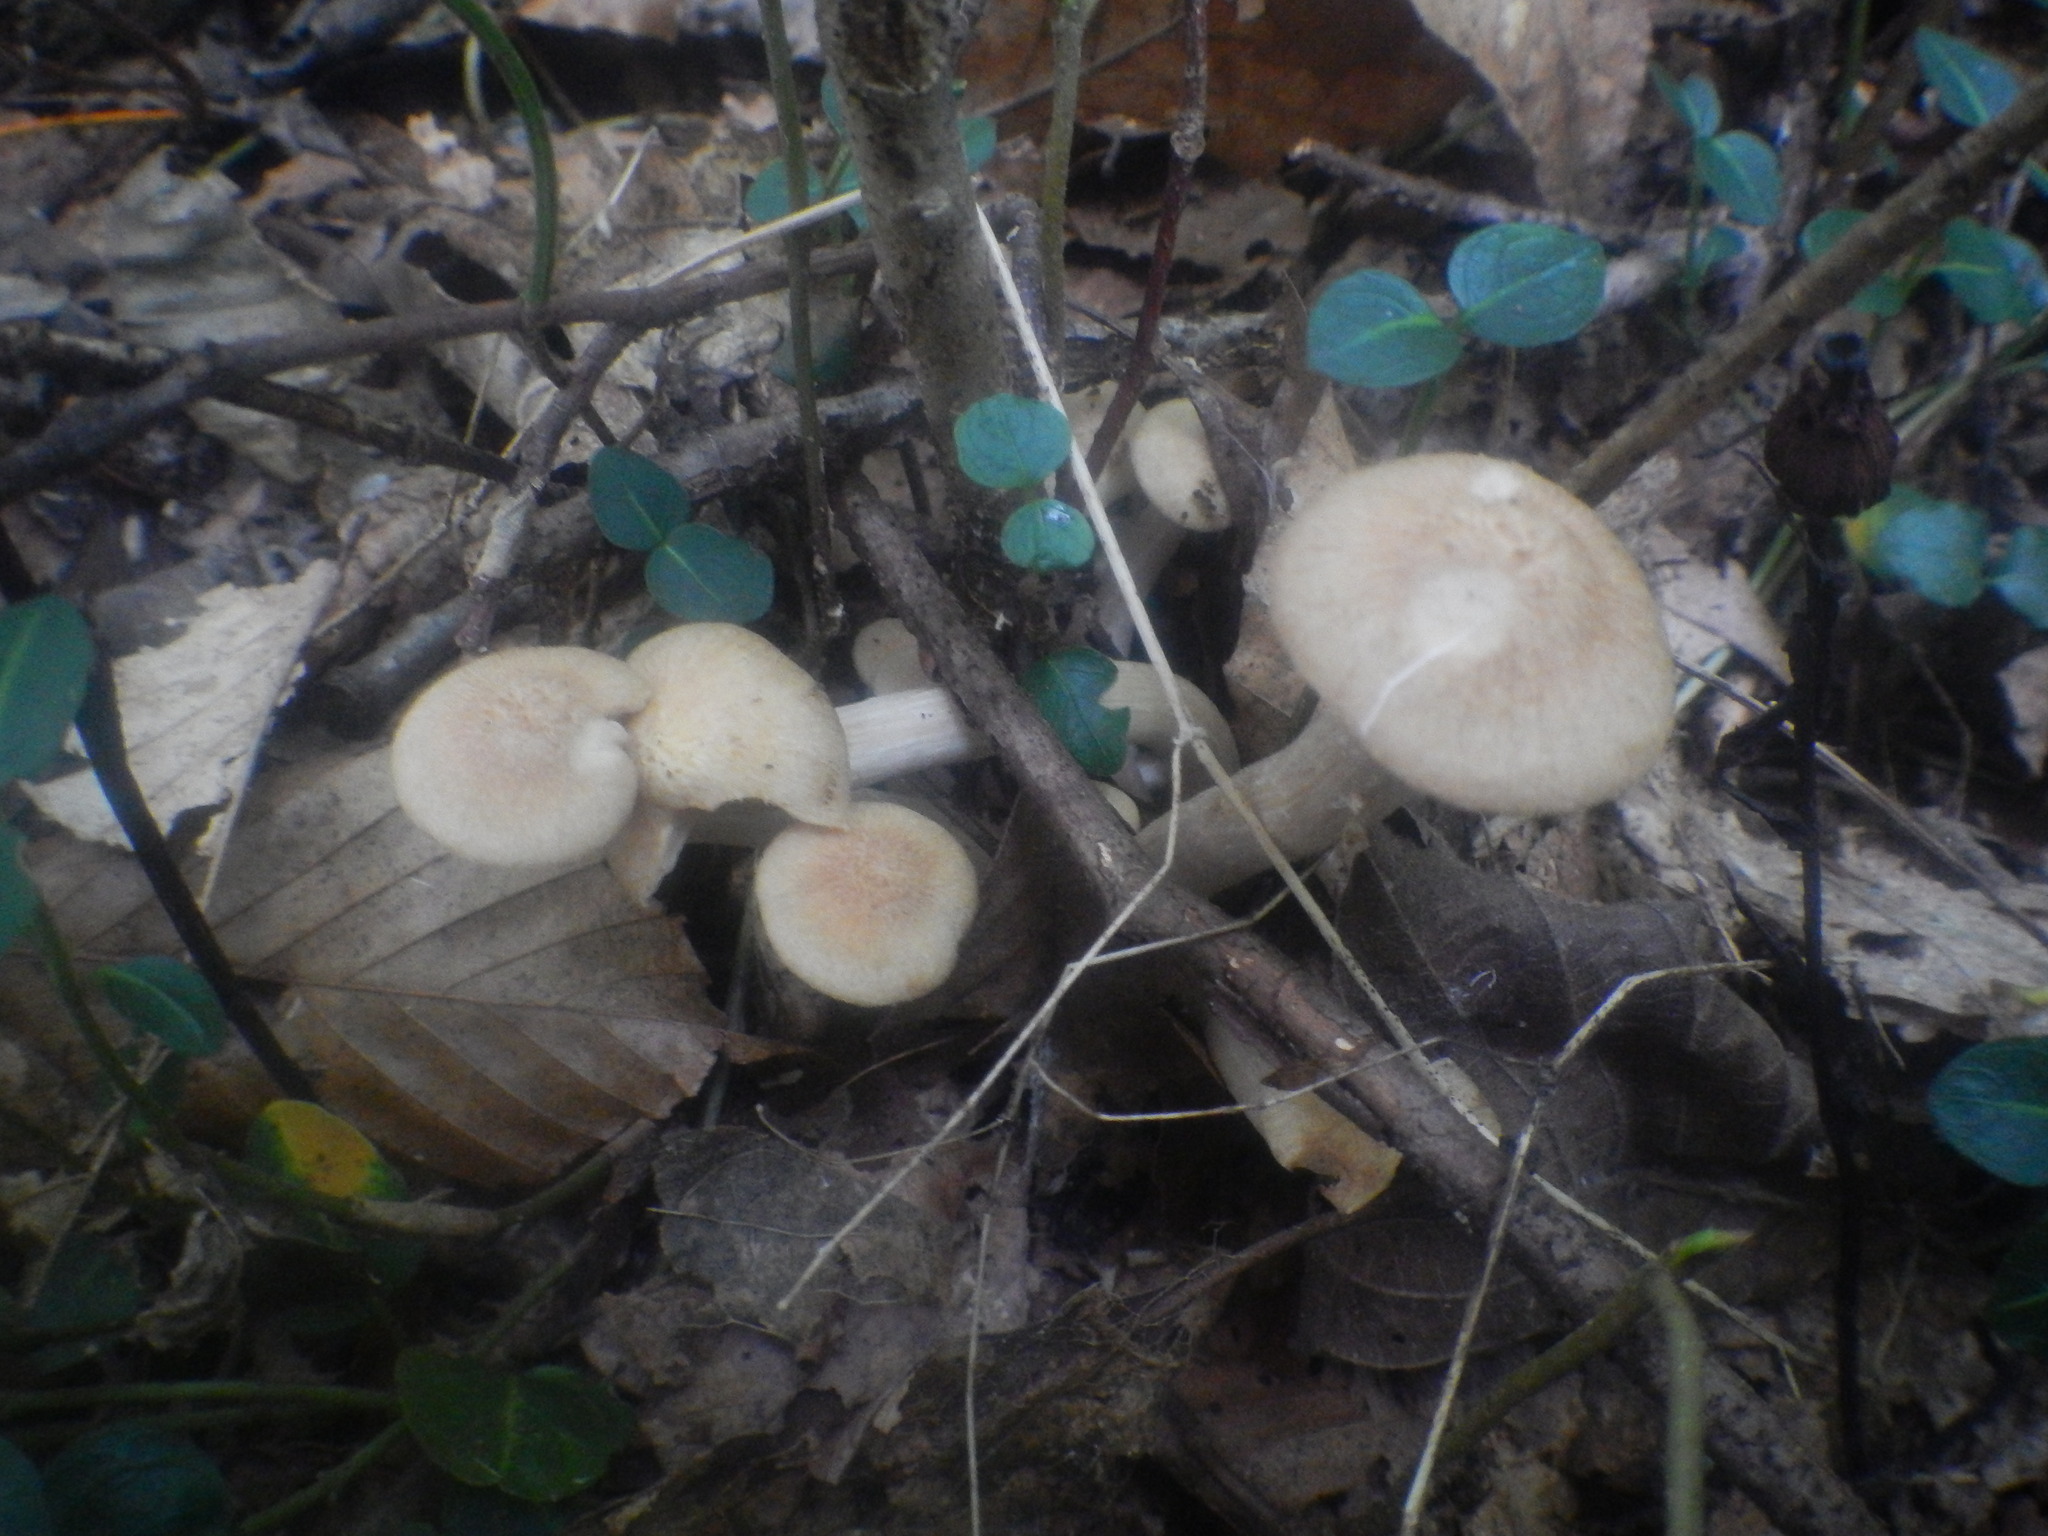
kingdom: Fungi
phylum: Basidiomycota
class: Agaricomycetes
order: Agaricales
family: Physalacriaceae
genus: Desarmillaria
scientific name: Desarmillaria caespitosa
